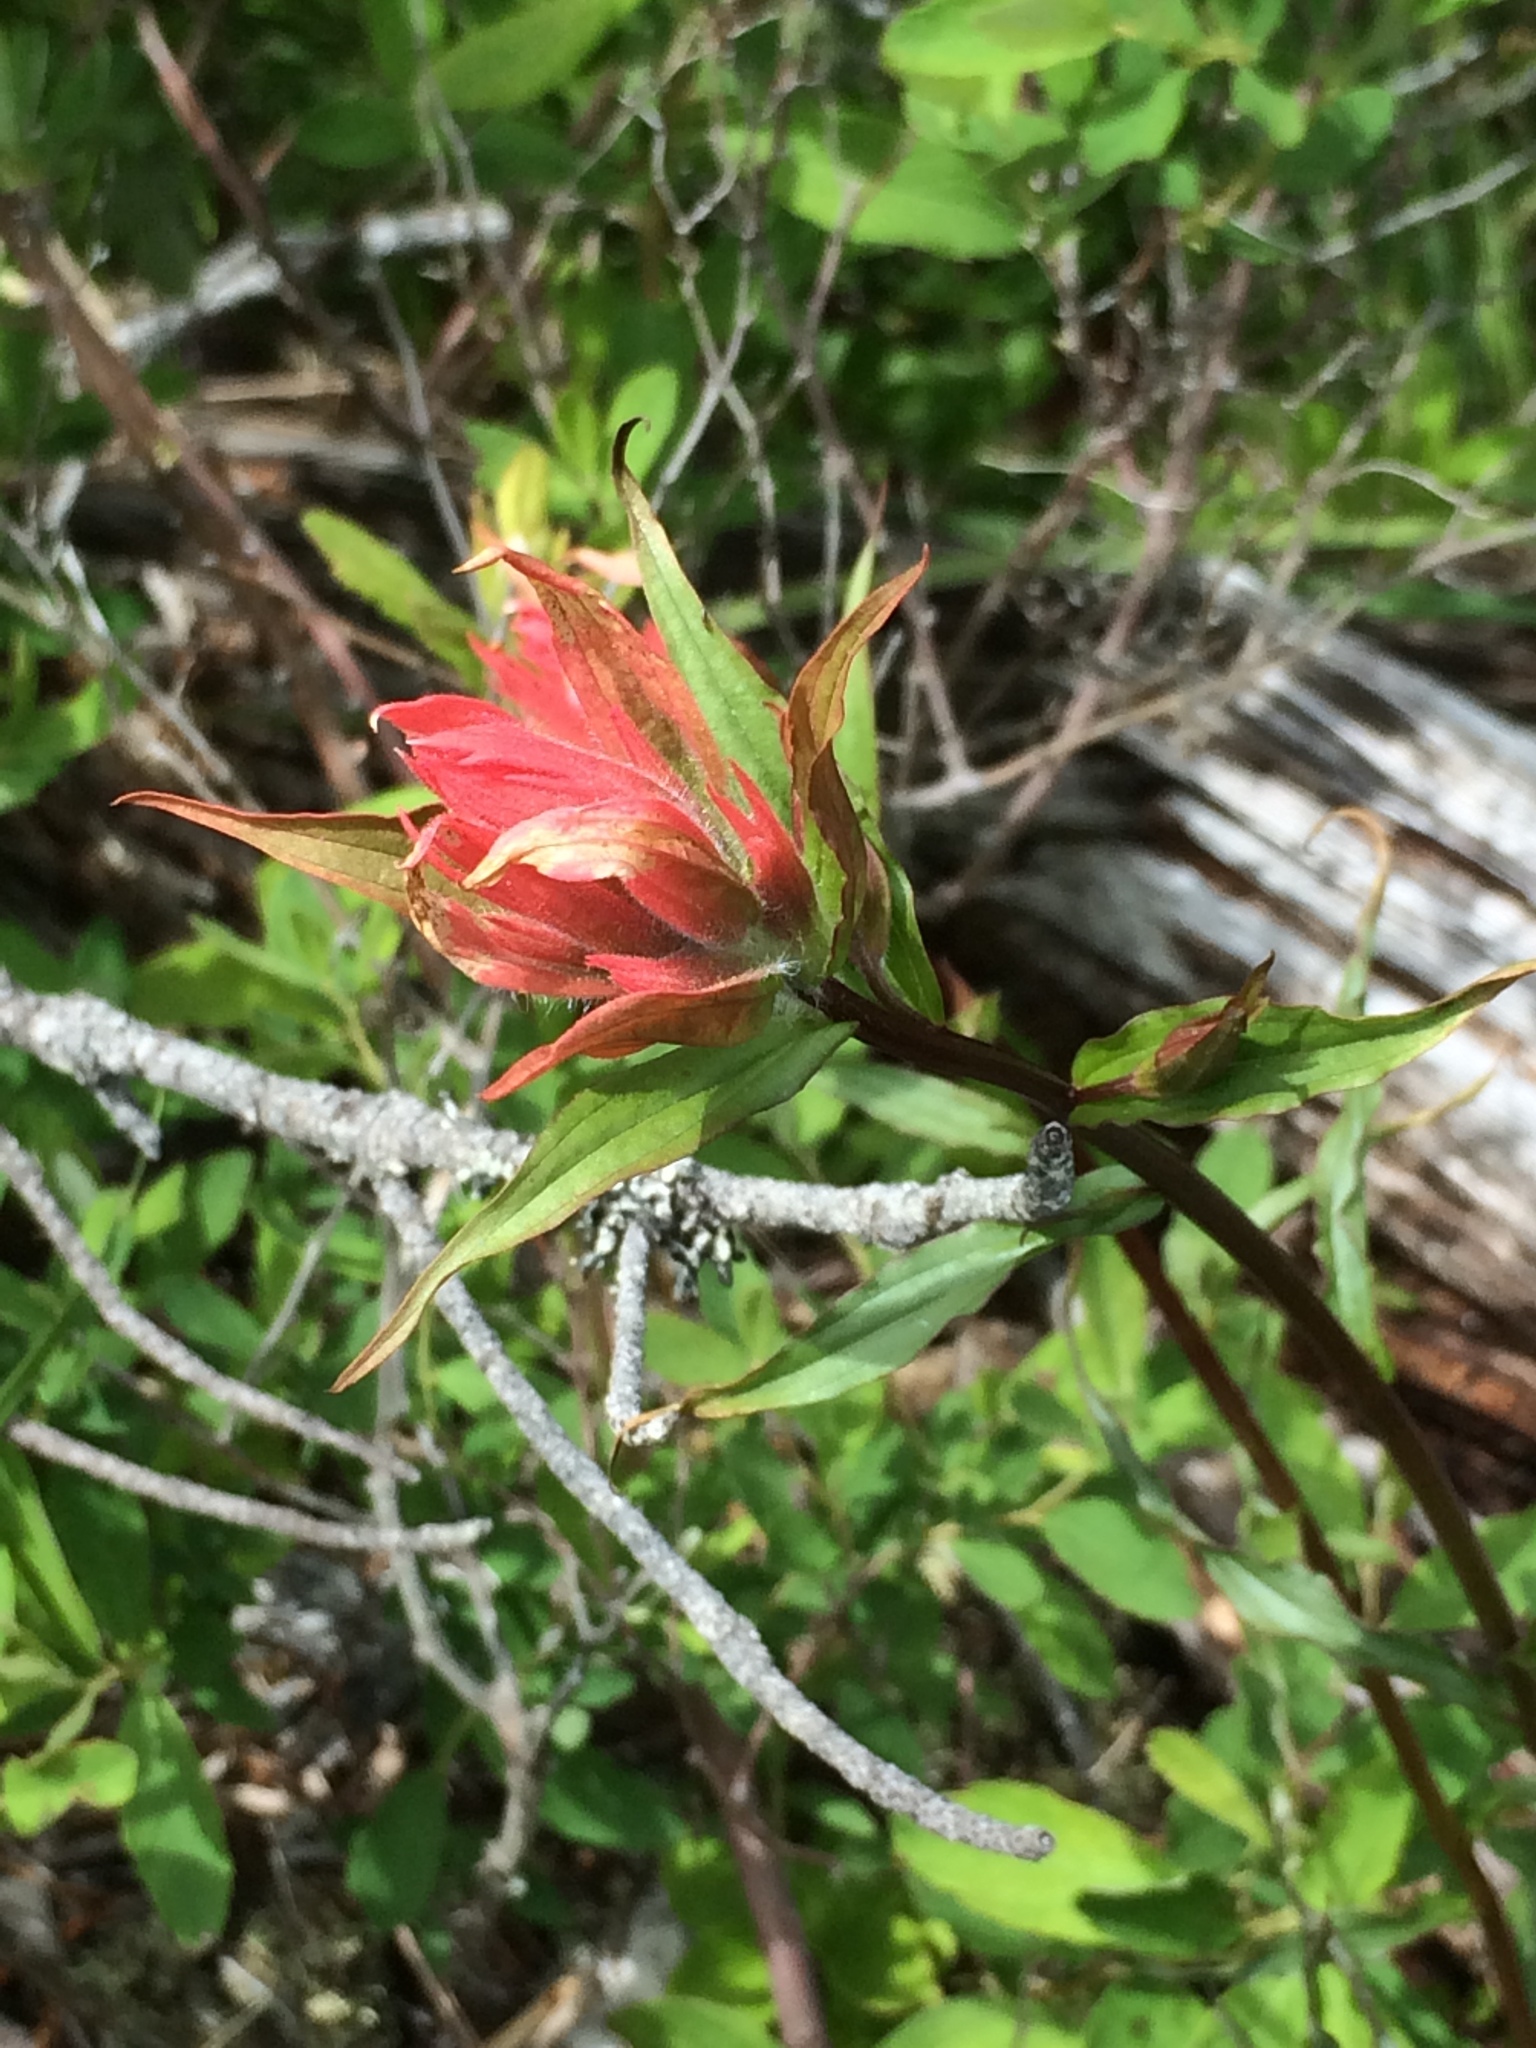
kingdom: Plantae
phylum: Tracheophyta
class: Magnoliopsida
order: Lamiales
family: Orobanchaceae
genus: Castilleja
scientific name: Castilleja miniata
